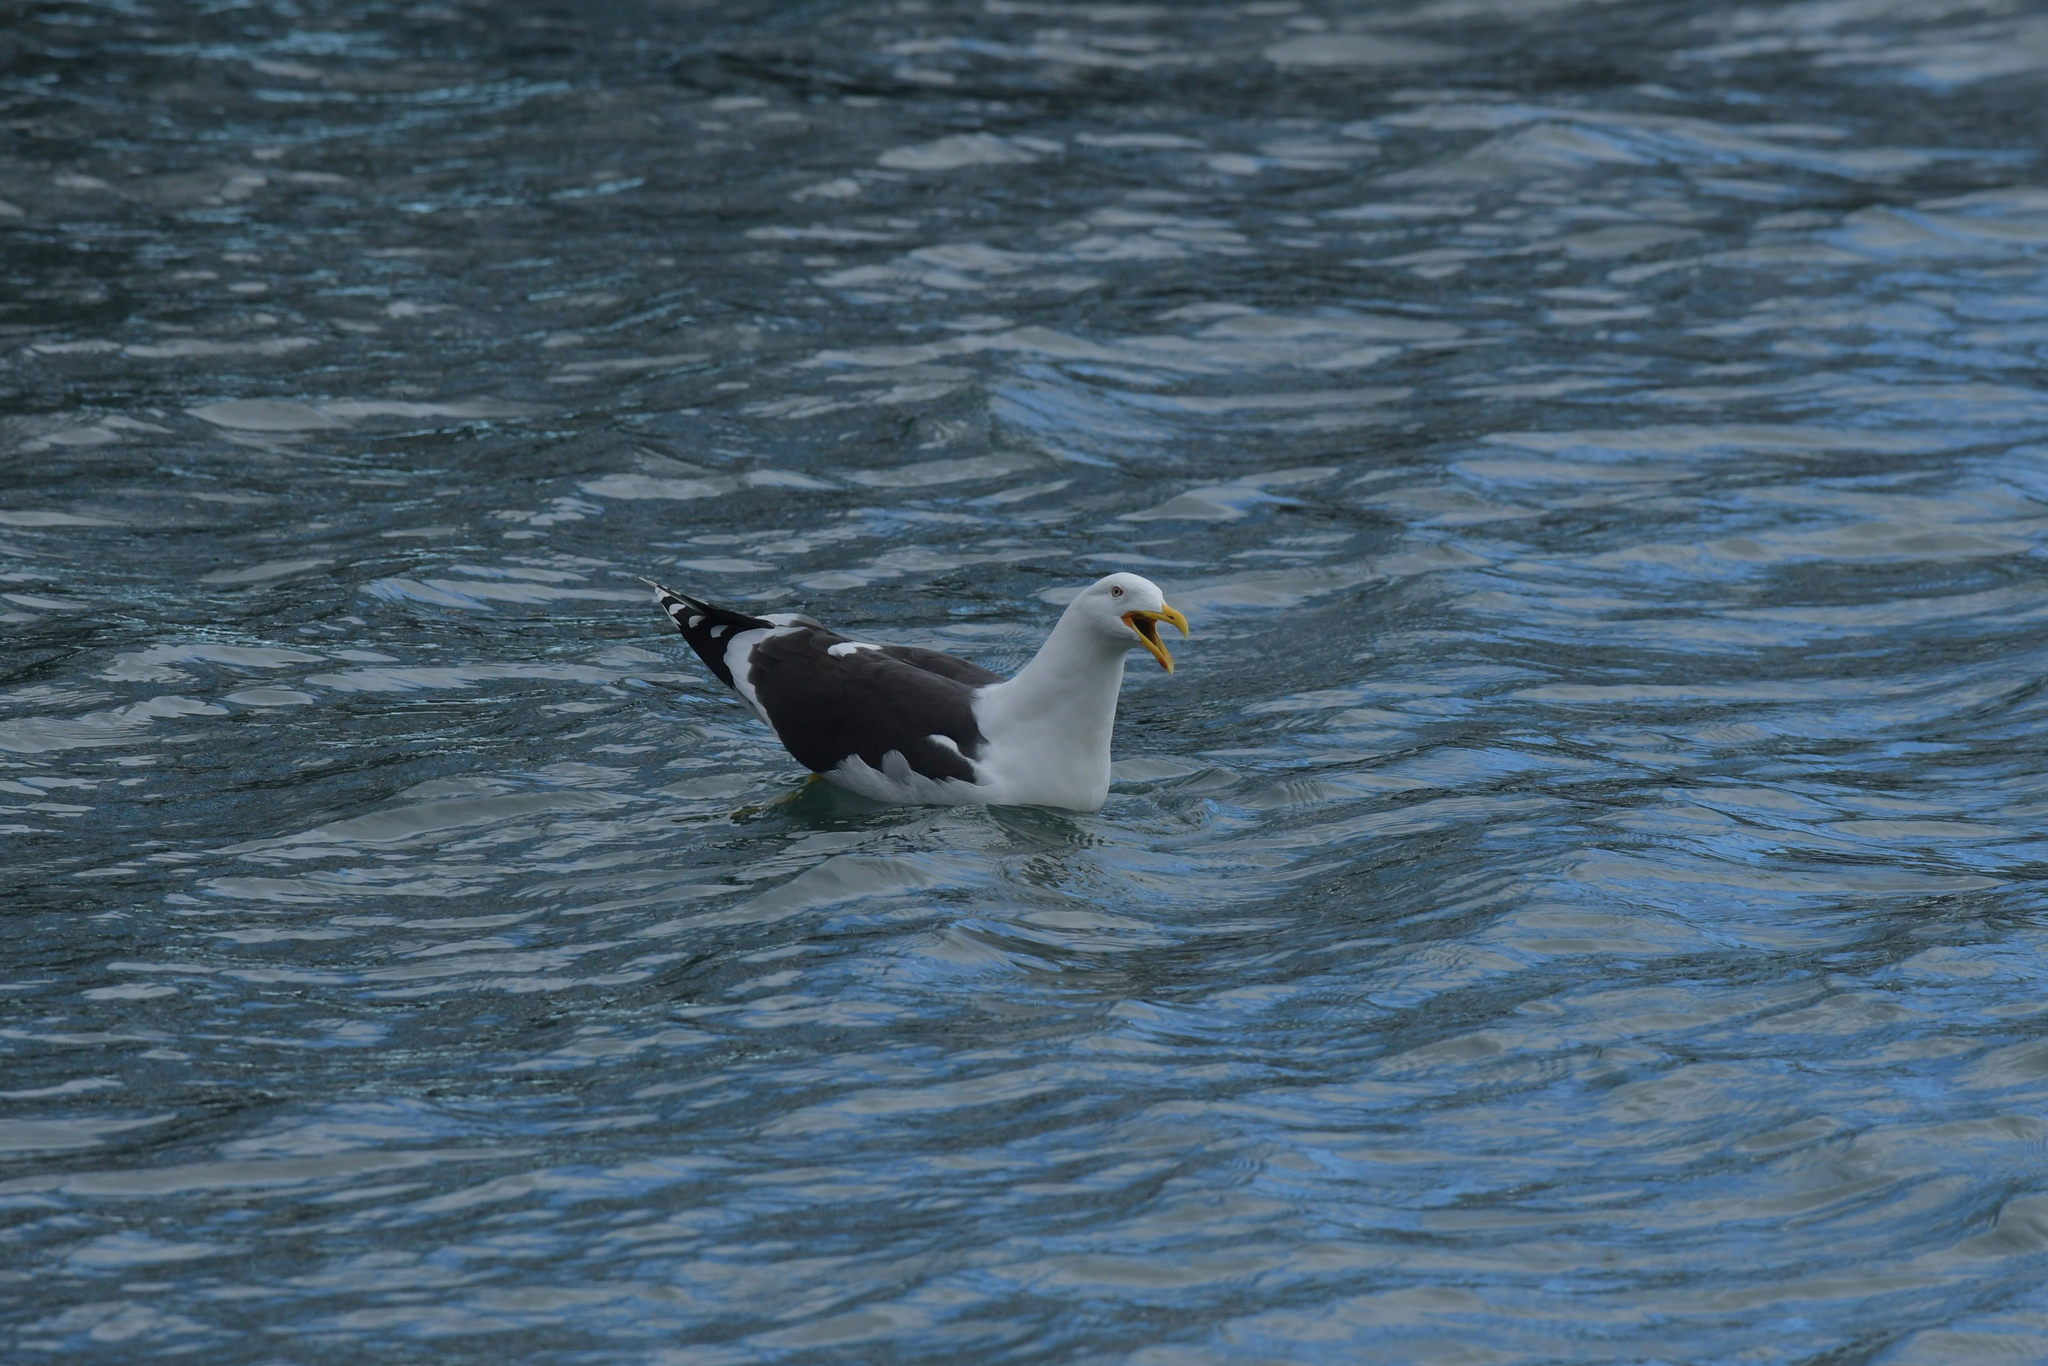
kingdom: Animalia
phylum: Chordata
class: Aves
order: Charadriiformes
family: Laridae
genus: Larus
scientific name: Larus dominicanus
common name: Kelp gull
